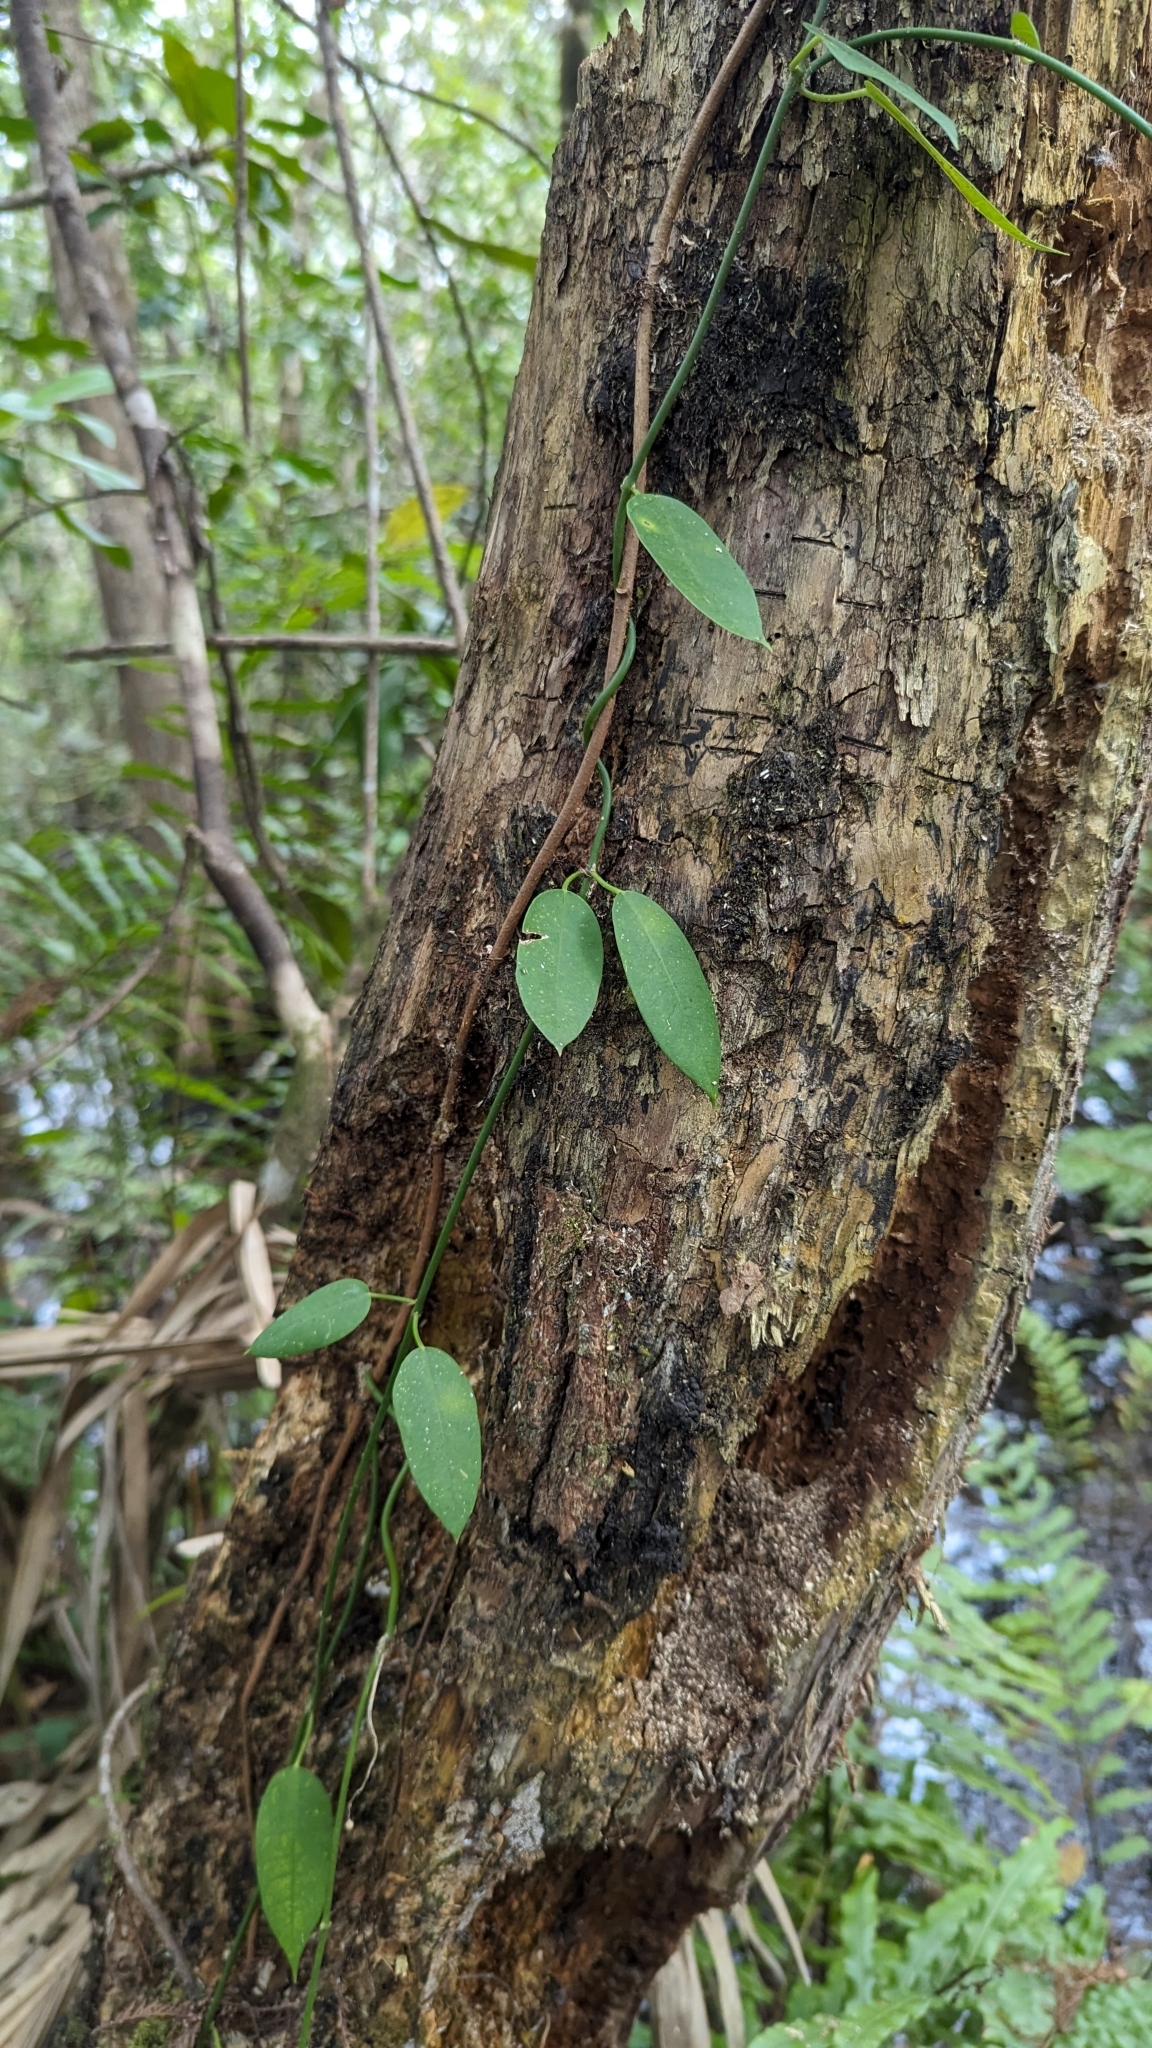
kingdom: Plantae
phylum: Tracheophyta
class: Magnoliopsida
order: Gentianales
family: Apocynaceae
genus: Funastrum
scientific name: Funastrum clausum
